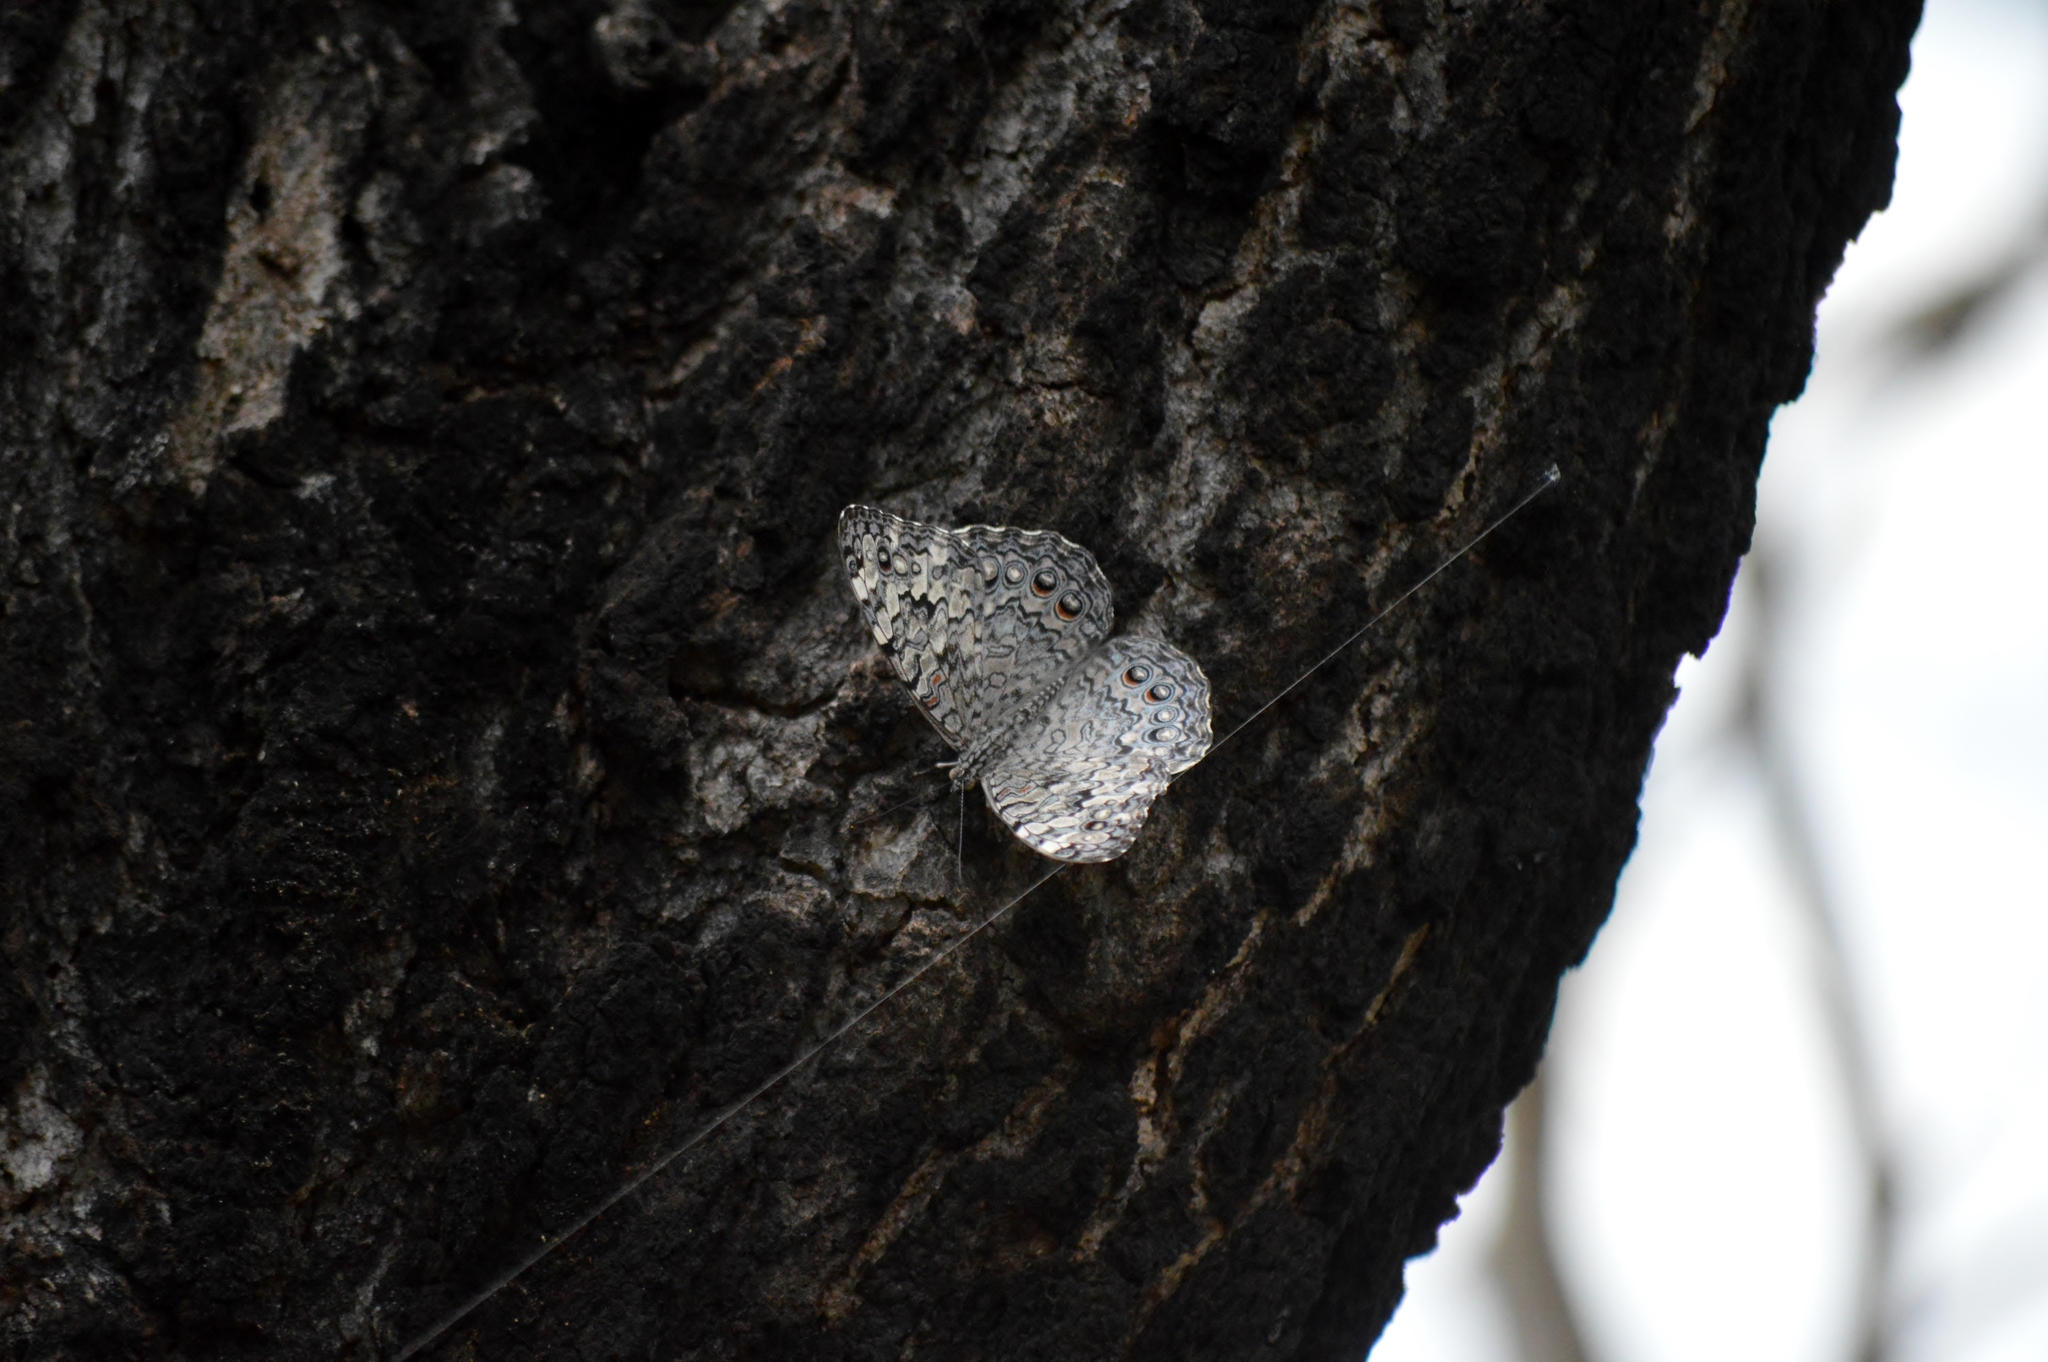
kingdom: Animalia
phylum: Arthropoda
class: Insecta
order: Lepidoptera
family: Nymphalidae
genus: Hamadryas
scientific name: Hamadryas februa
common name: Gray cracker
